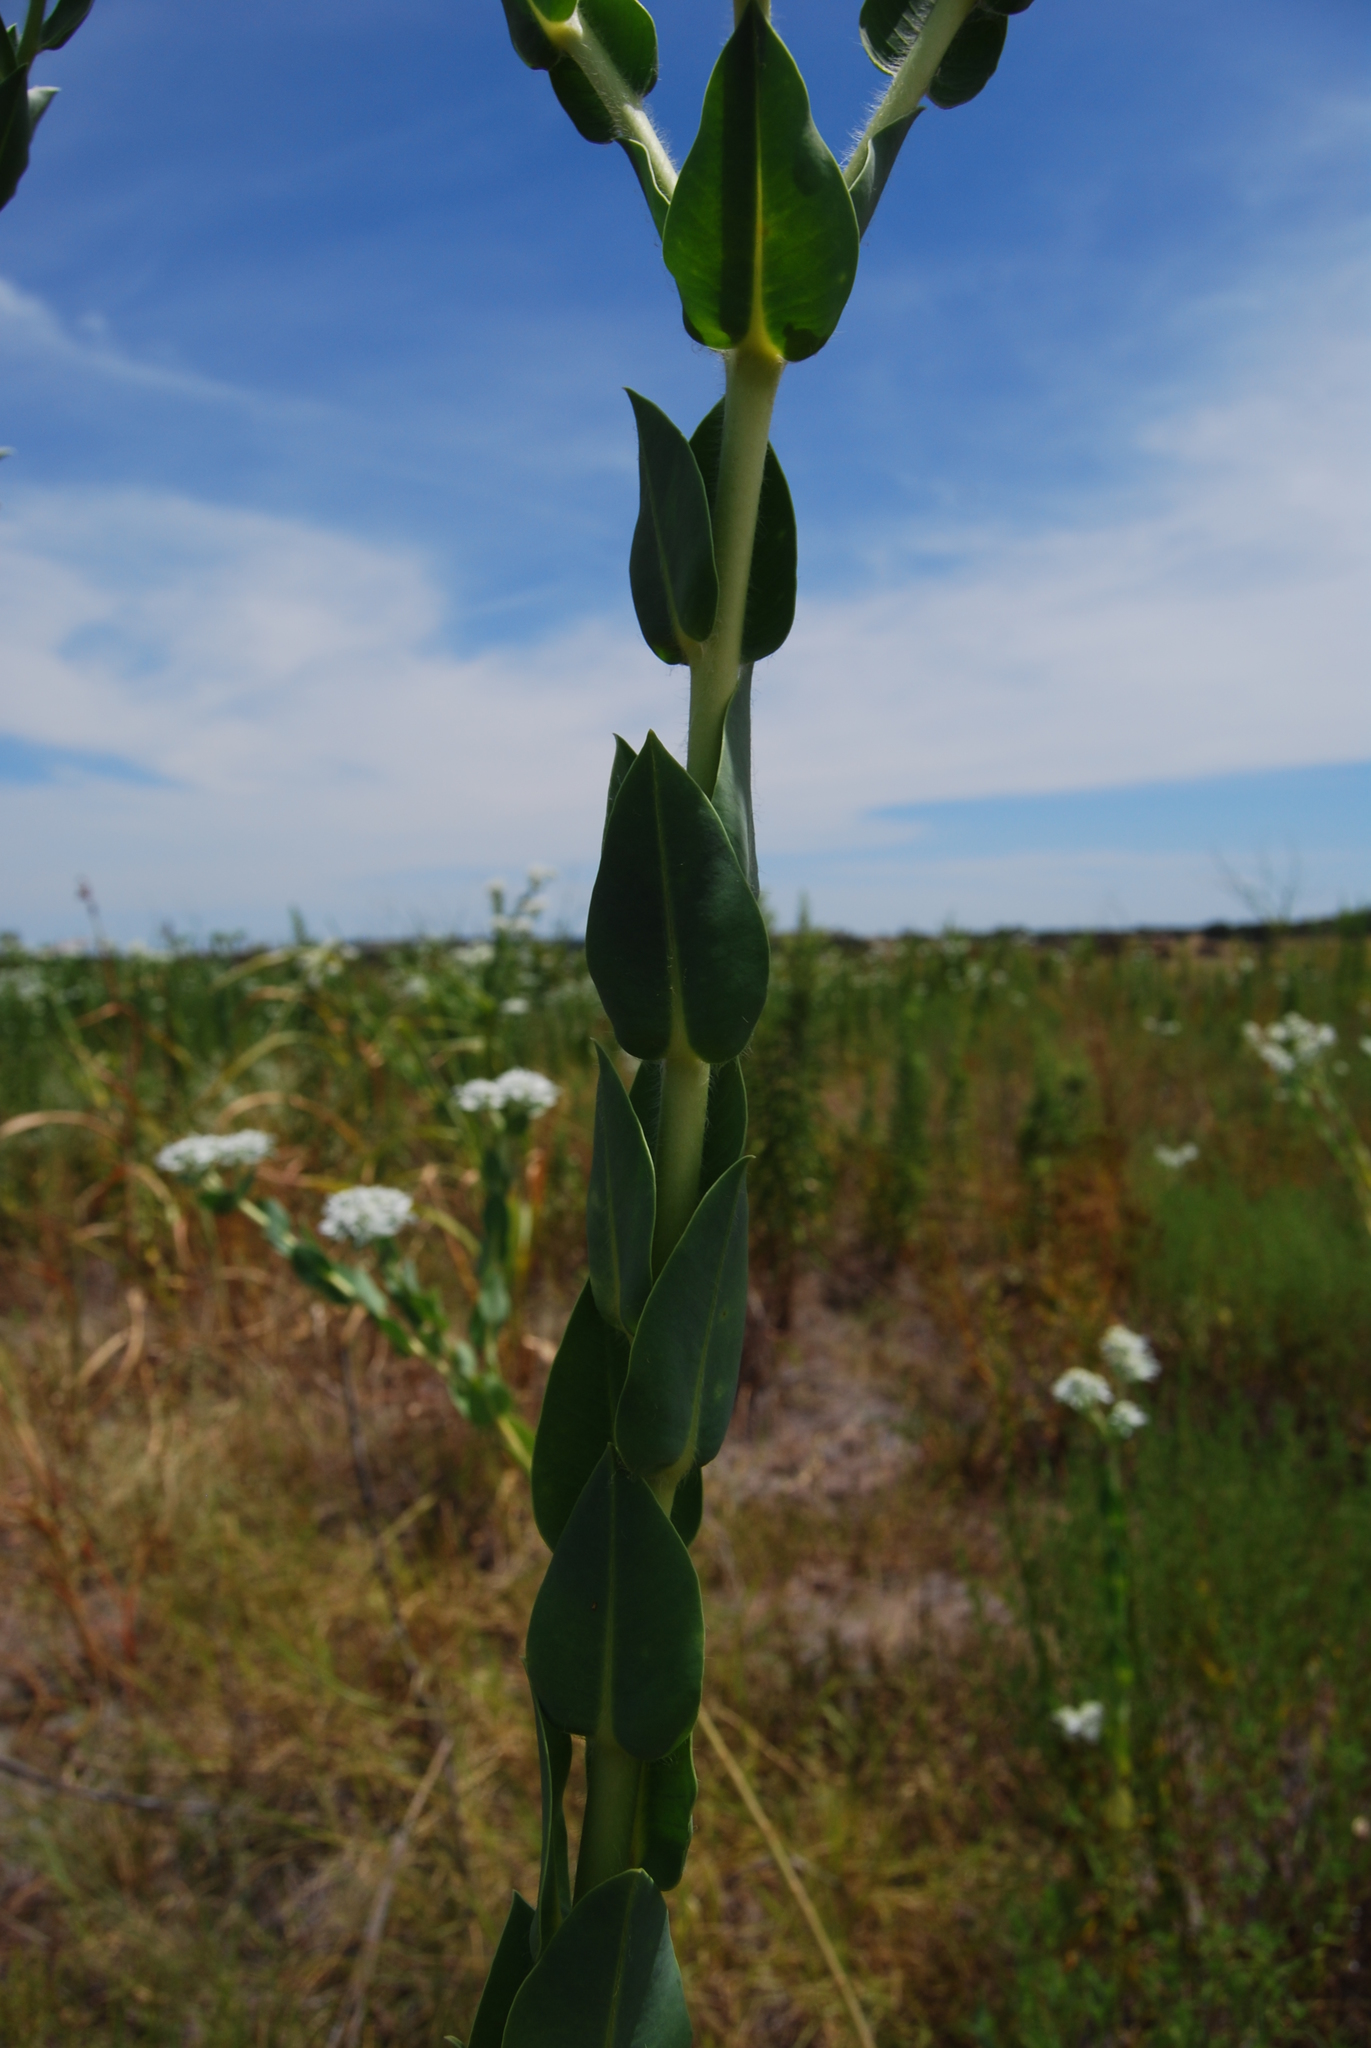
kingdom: Plantae
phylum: Tracheophyta
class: Magnoliopsida
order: Malpighiales
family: Euphorbiaceae
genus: Euphorbia
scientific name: Euphorbia marginata
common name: Ghostweed
